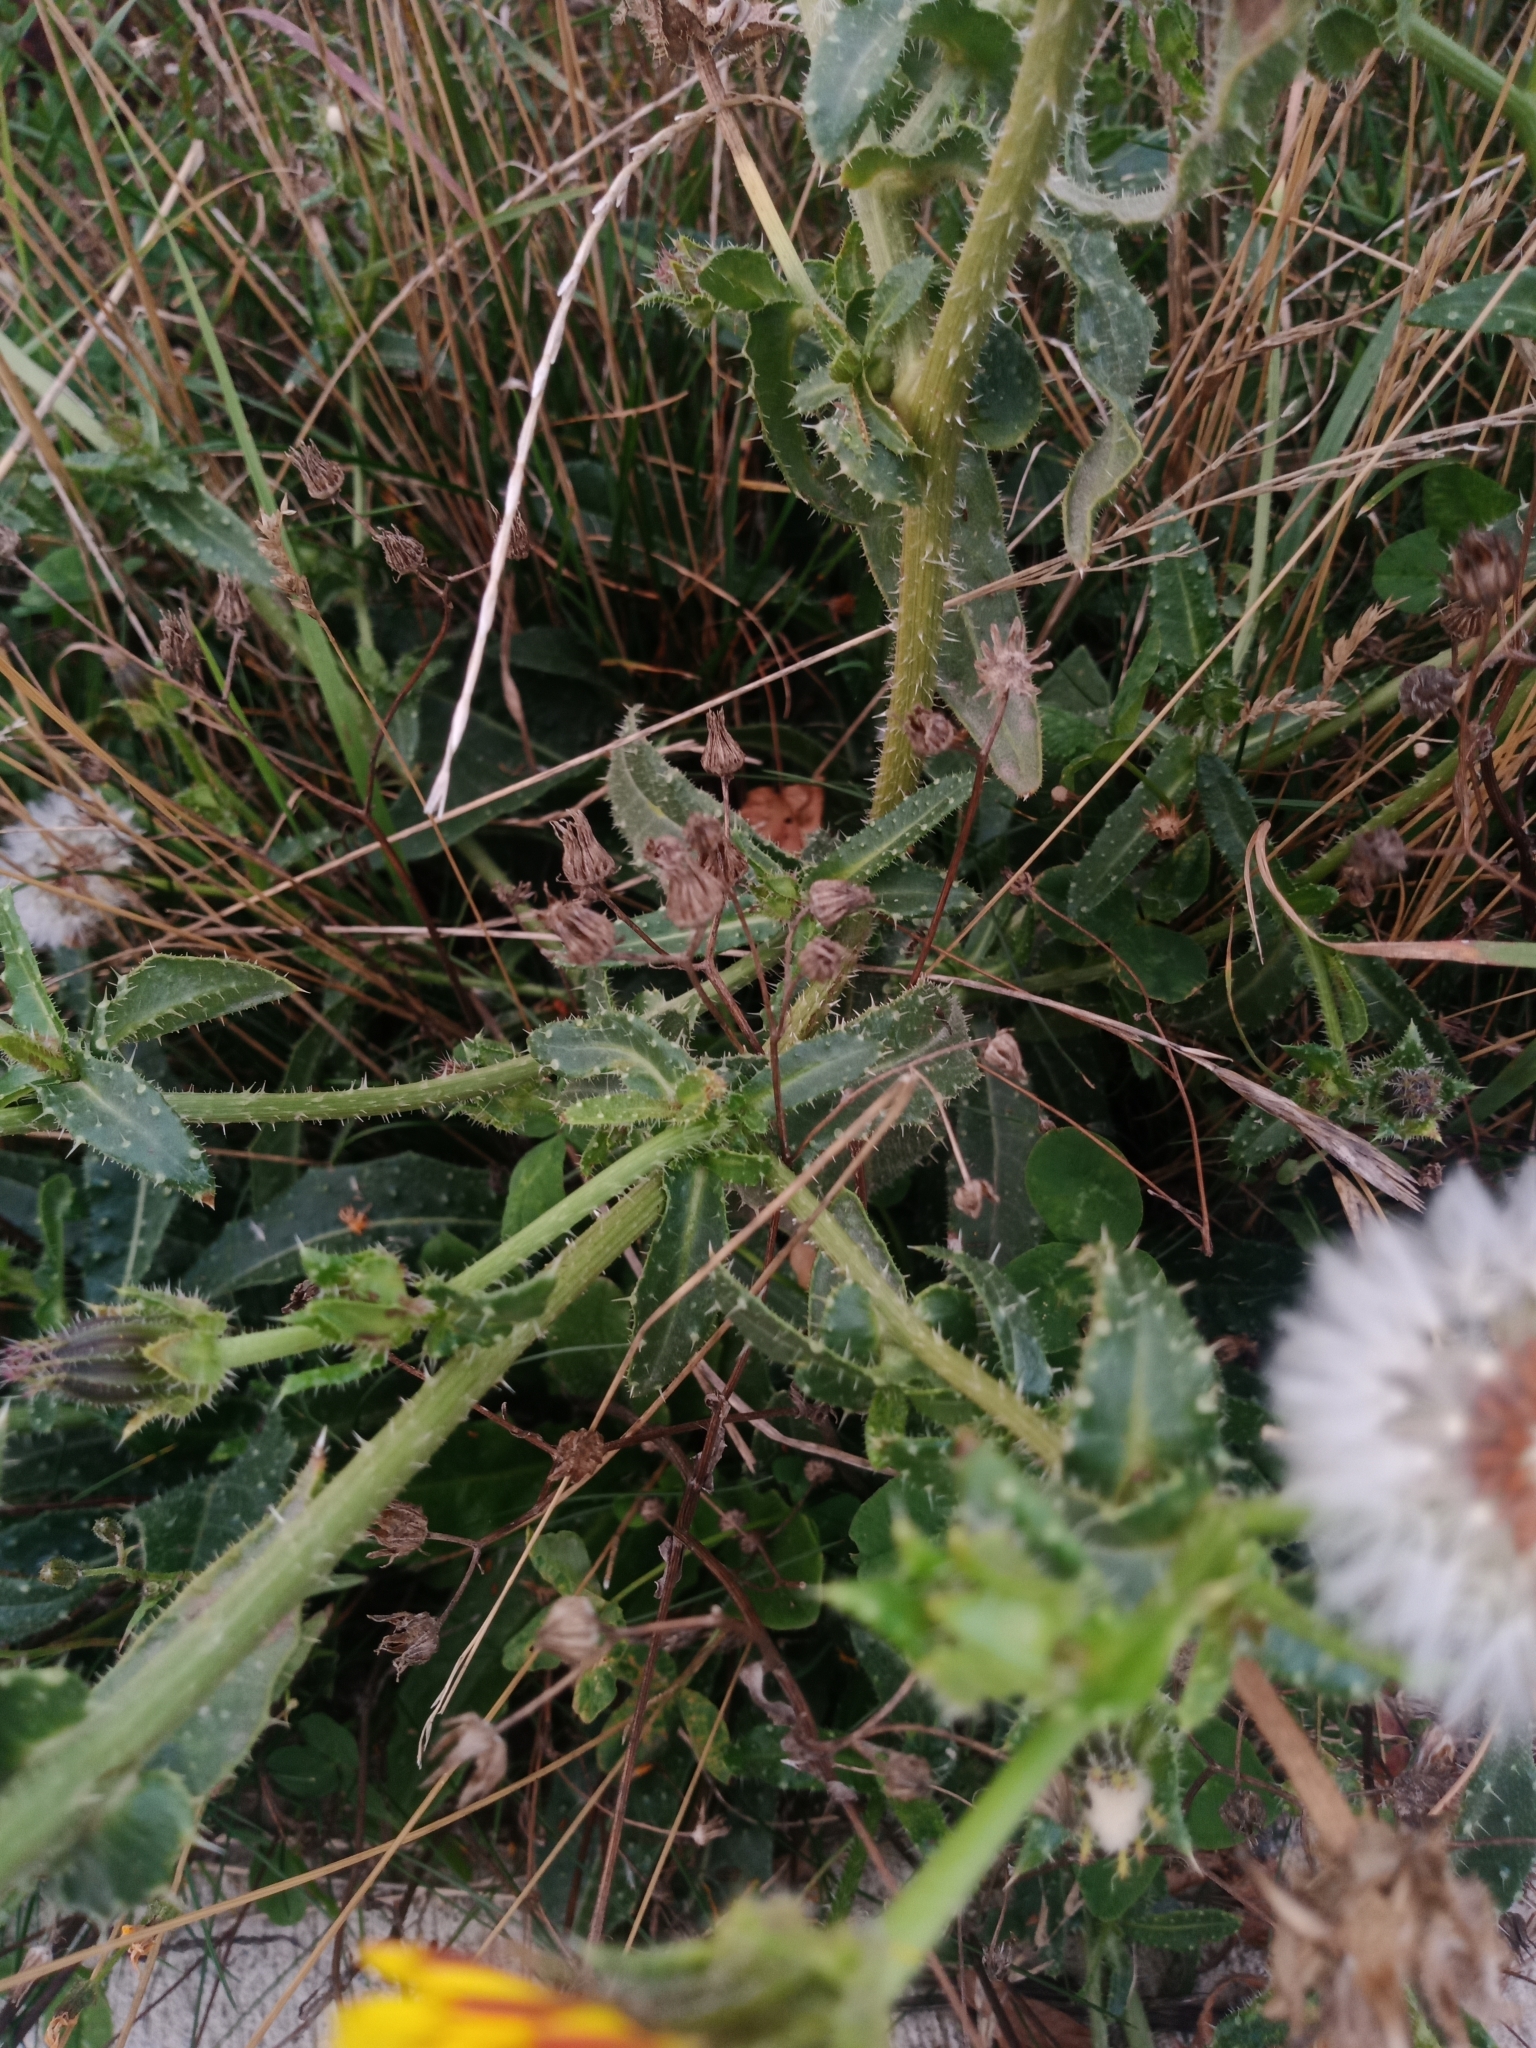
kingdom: Plantae
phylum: Tracheophyta
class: Magnoliopsida
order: Asterales
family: Asteraceae
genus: Helminthotheca
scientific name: Helminthotheca echioides
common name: Ox-tongue
